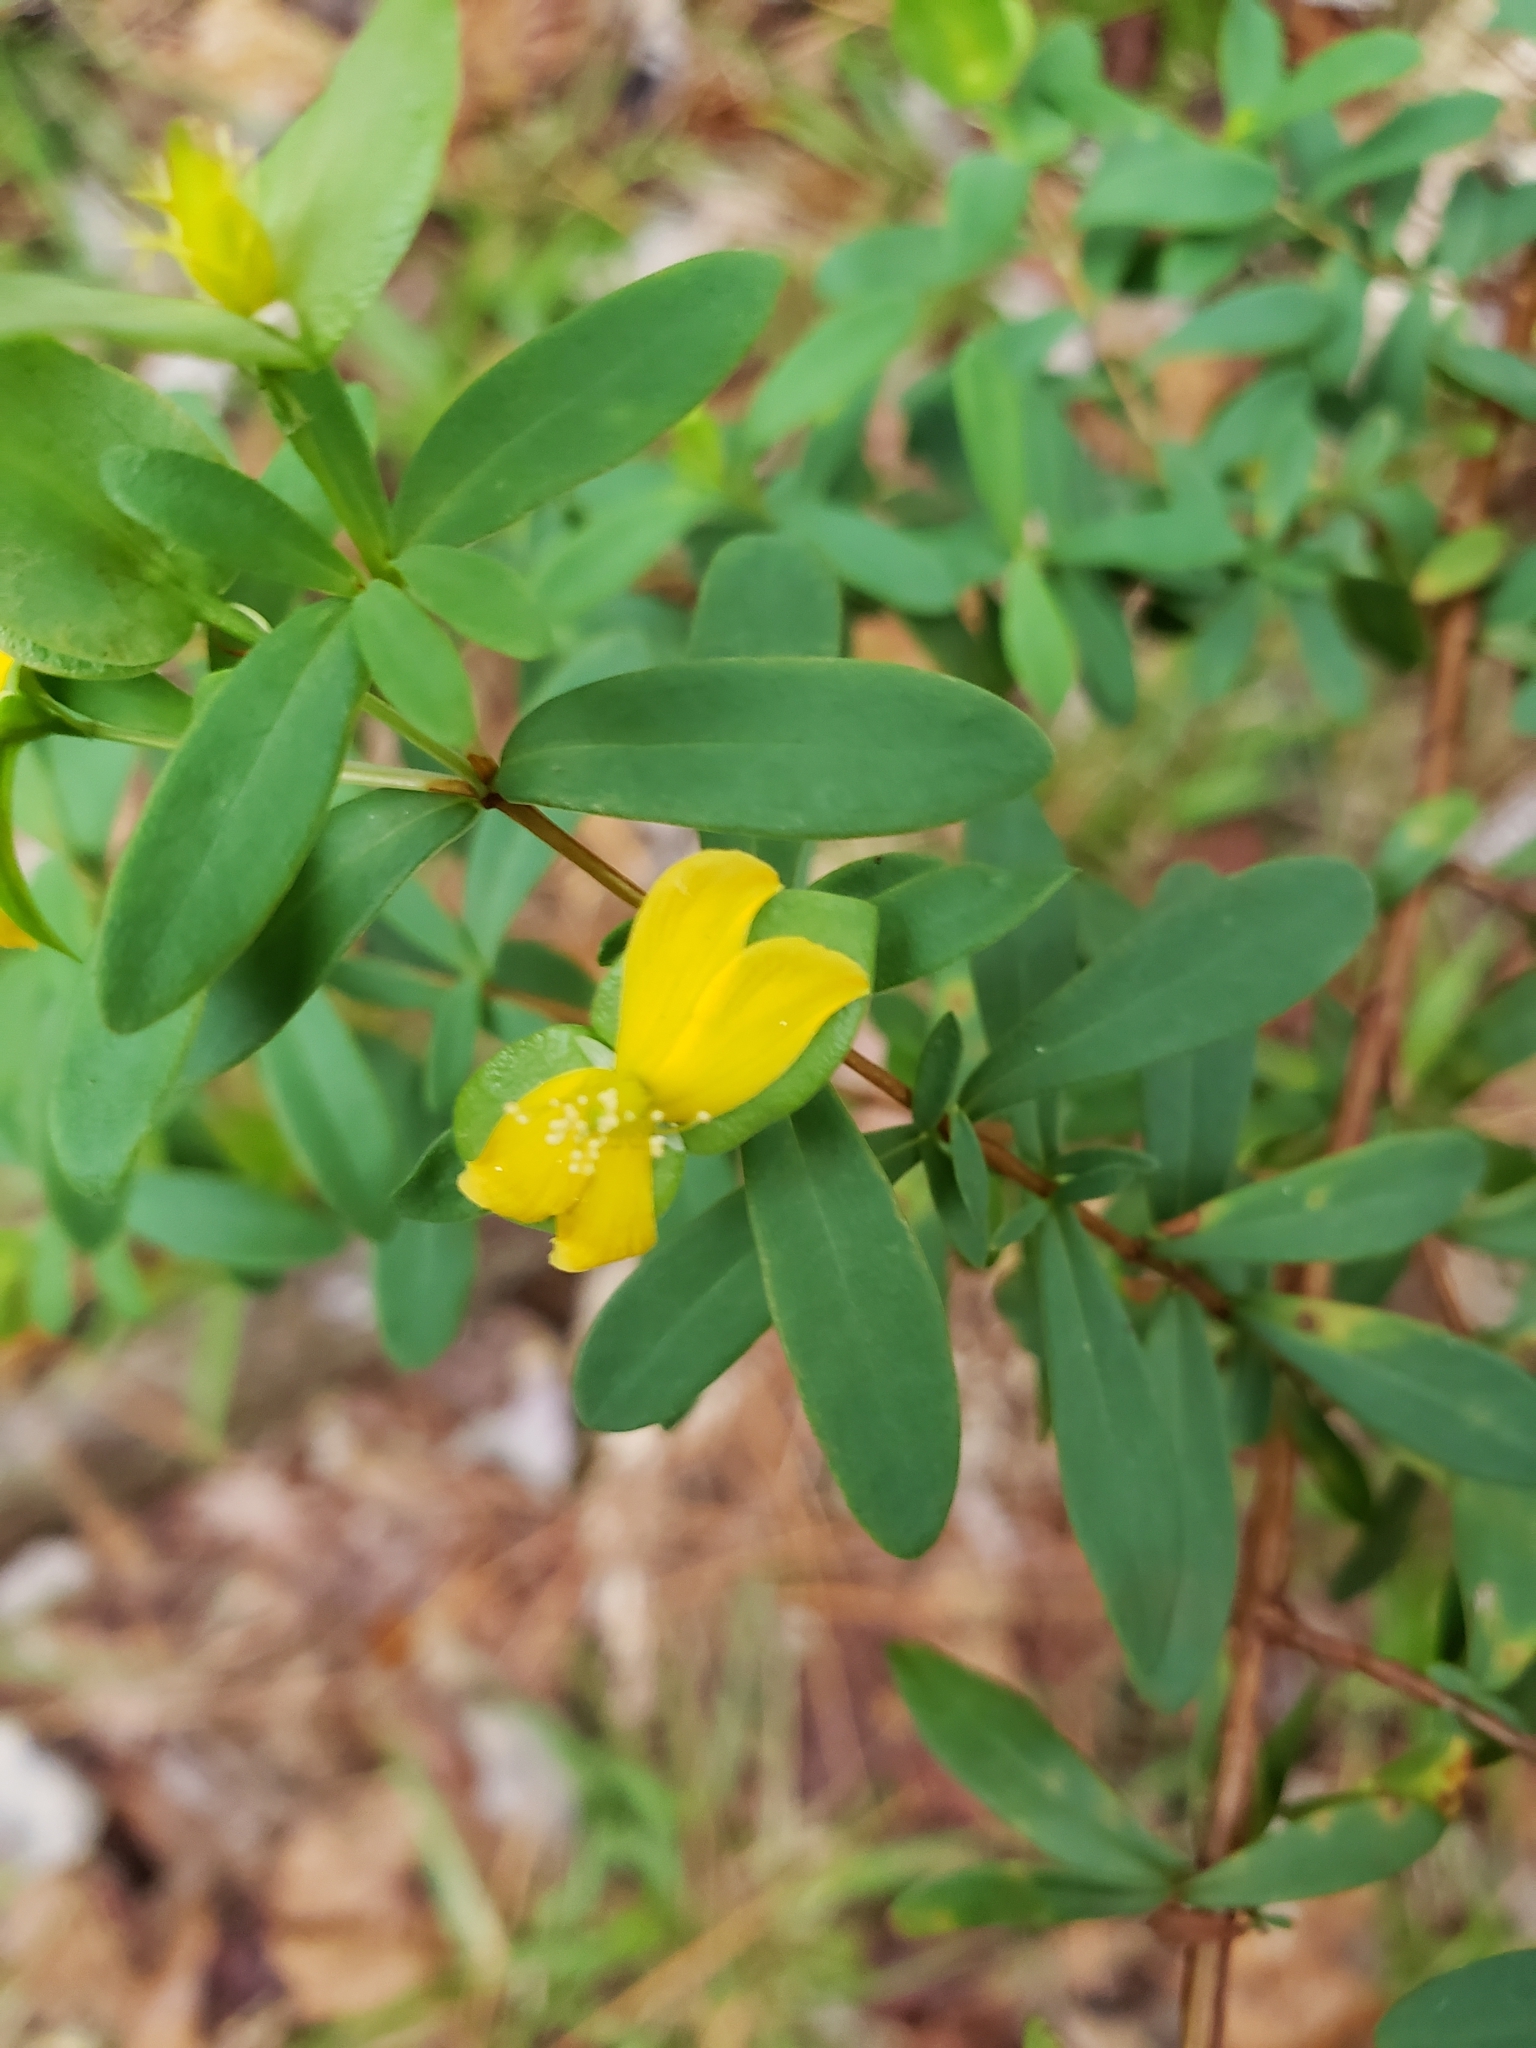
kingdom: Plantae
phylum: Tracheophyta
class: Magnoliopsida
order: Malpighiales
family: Hypericaceae
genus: Hypericum
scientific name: Hypericum hypericoides
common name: St. andrew's cross
